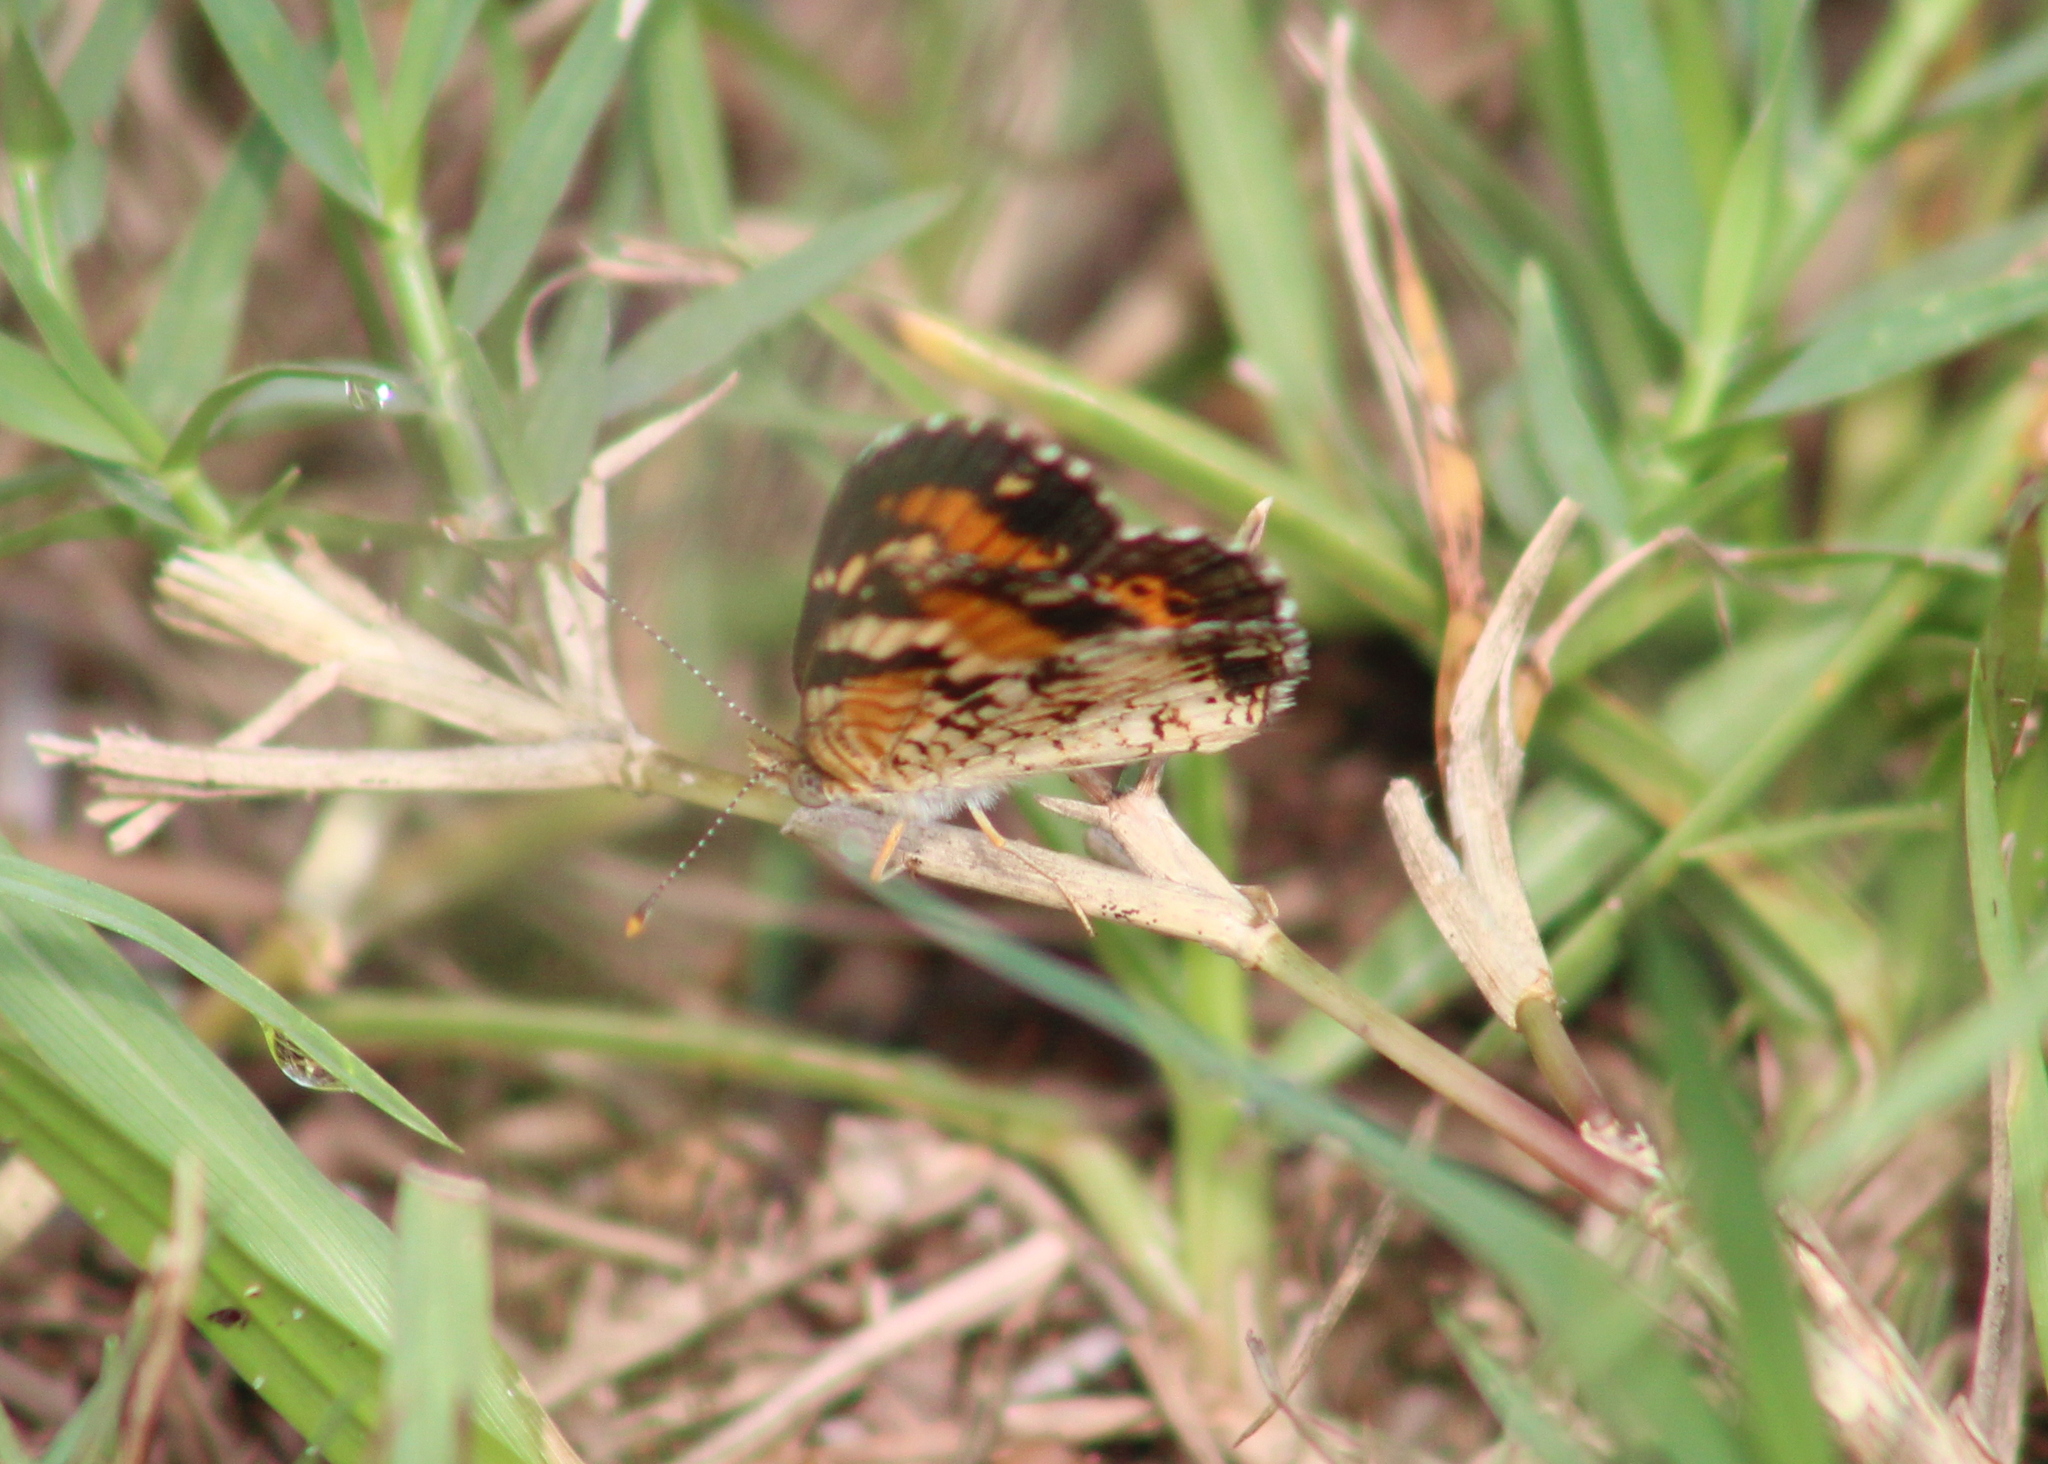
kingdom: Animalia
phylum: Arthropoda
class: Insecta
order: Lepidoptera
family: Nymphalidae
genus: Phyciodes
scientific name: Phyciodes phaon
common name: Phaon crescent
